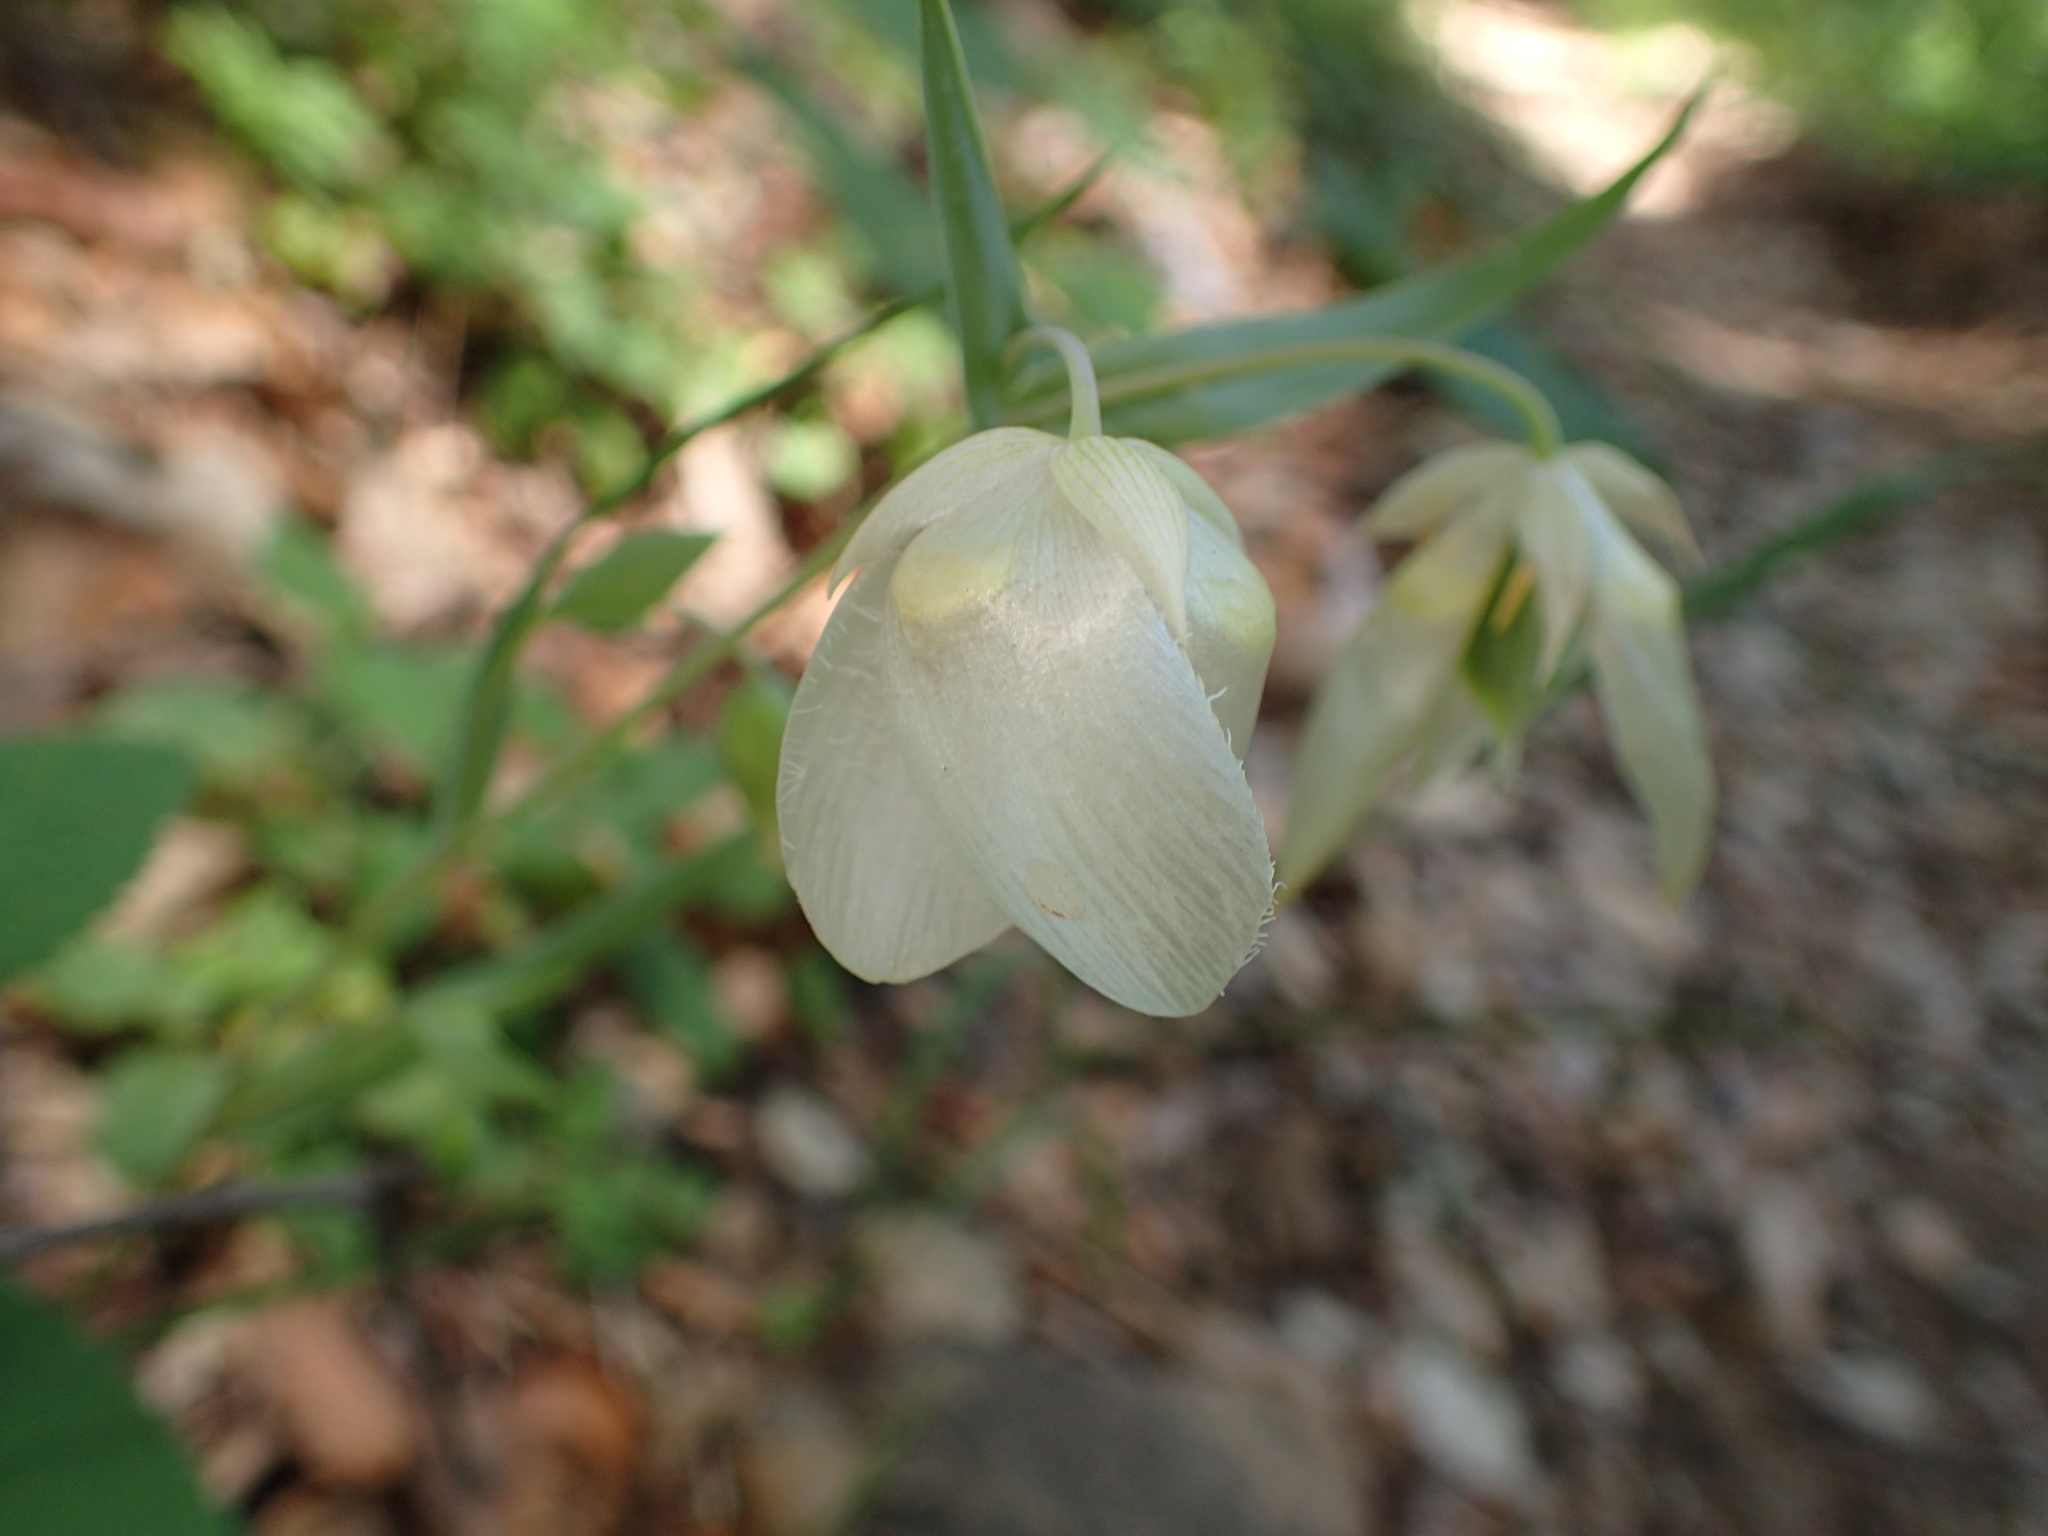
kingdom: Plantae
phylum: Tracheophyta
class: Liliopsida
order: Liliales
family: Liliaceae
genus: Calochortus
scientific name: Calochortus albus
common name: Fairy-lantern
